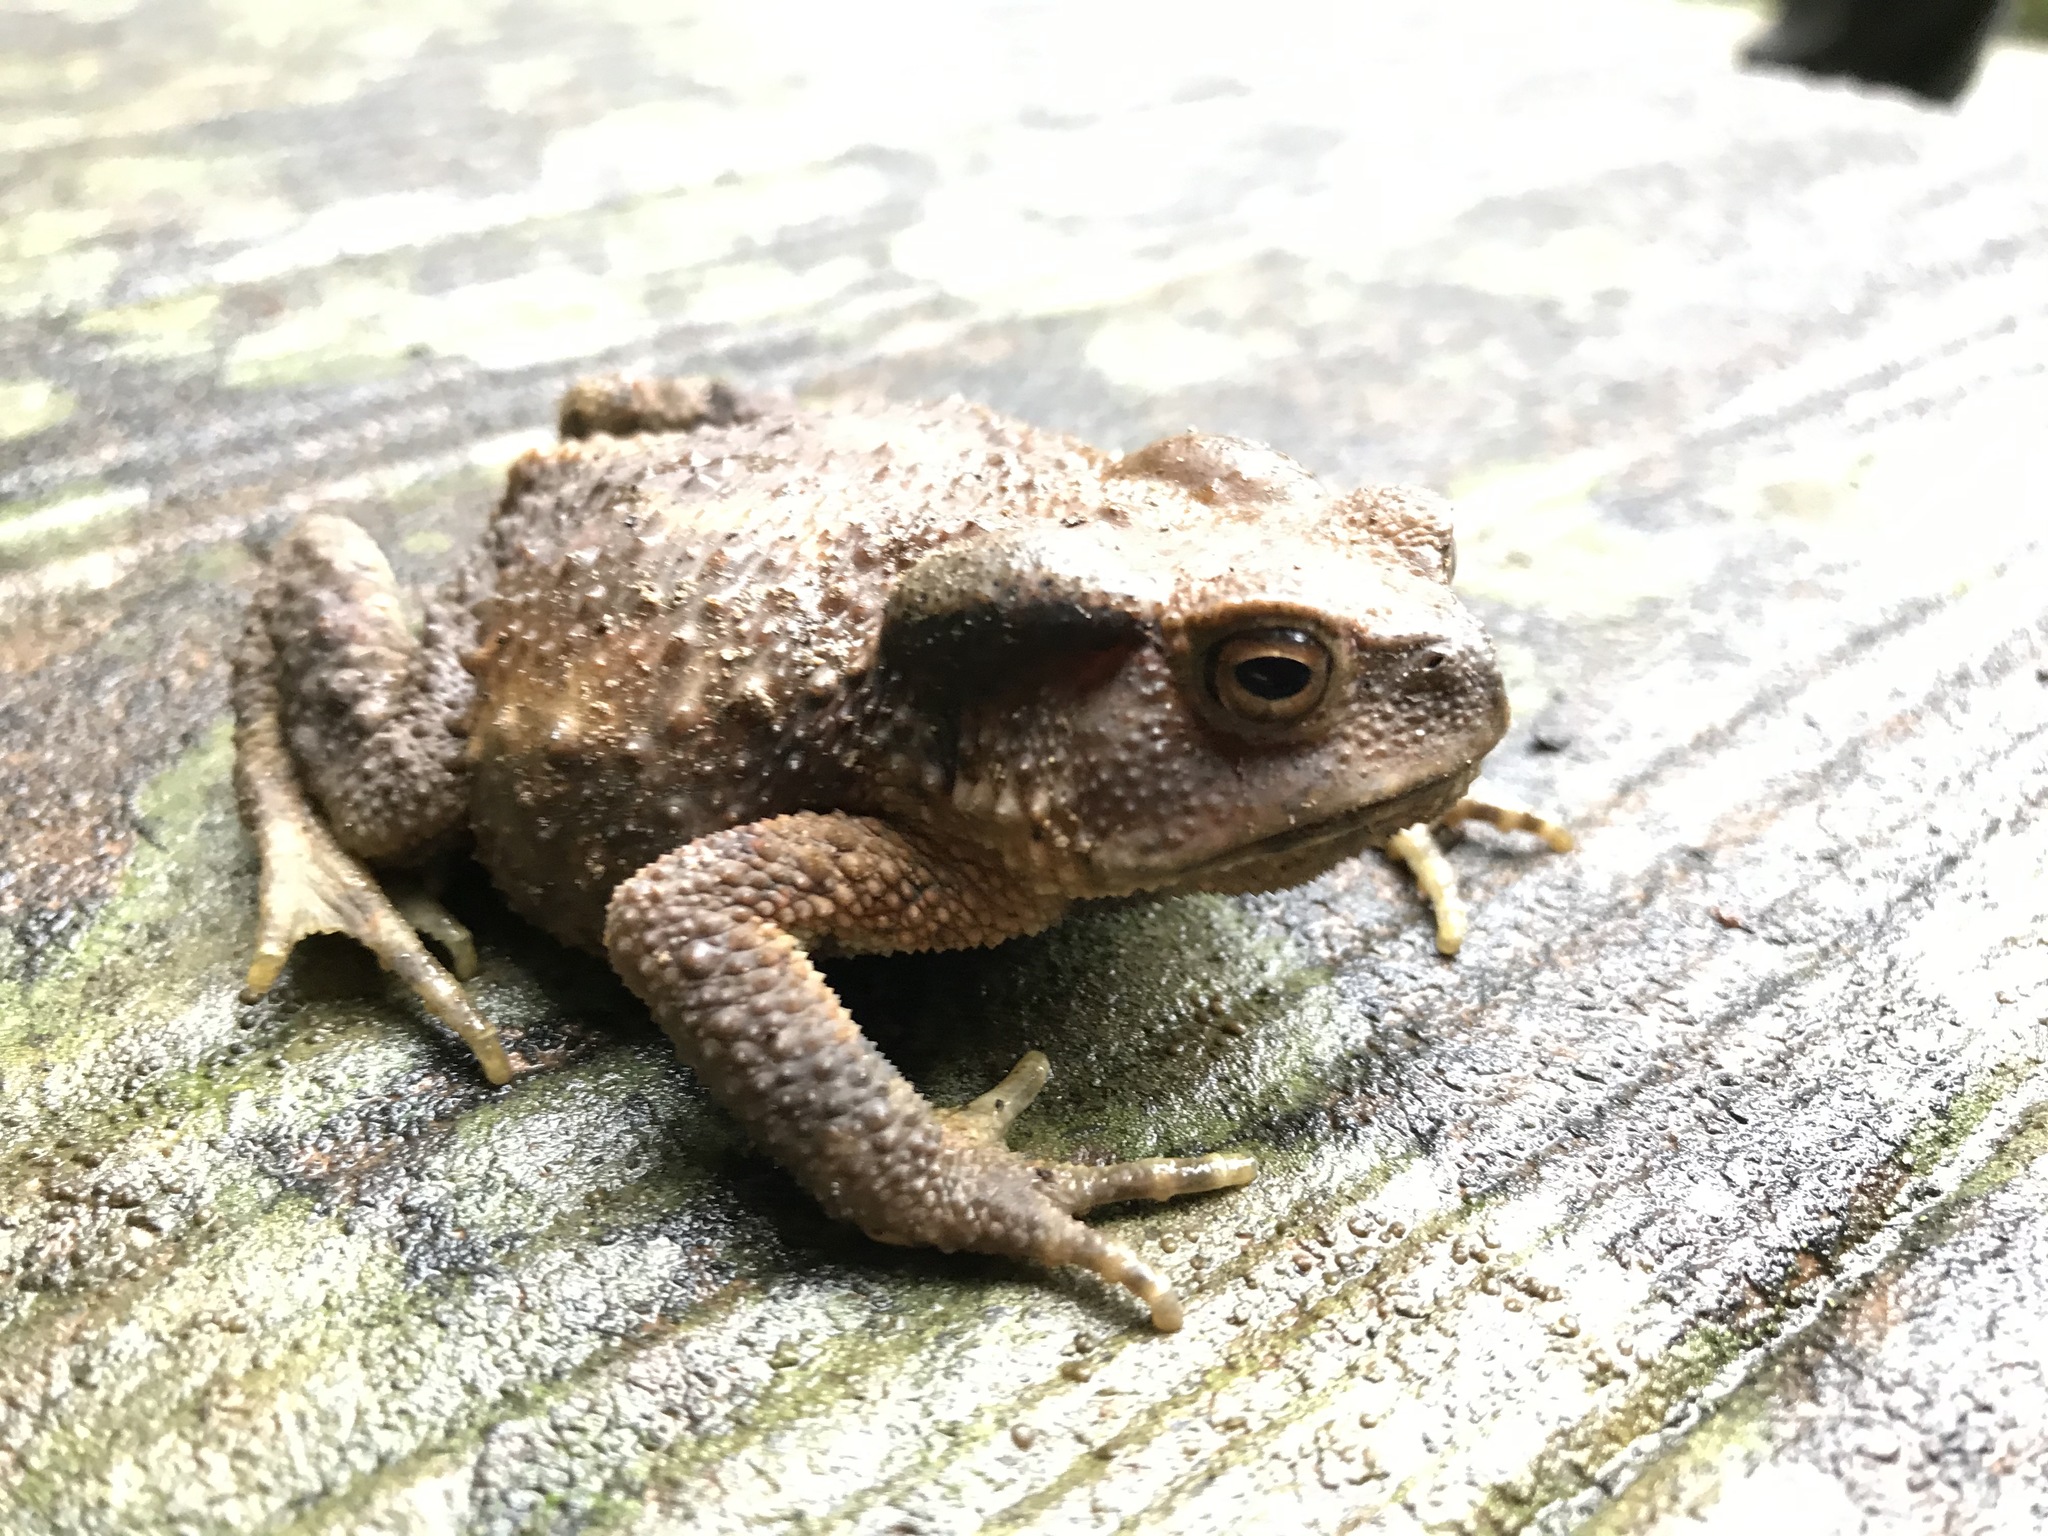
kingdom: Animalia
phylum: Chordata
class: Amphibia
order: Anura
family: Bufonidae
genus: Bufo
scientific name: Bufo bankorensis
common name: Bankor toad
